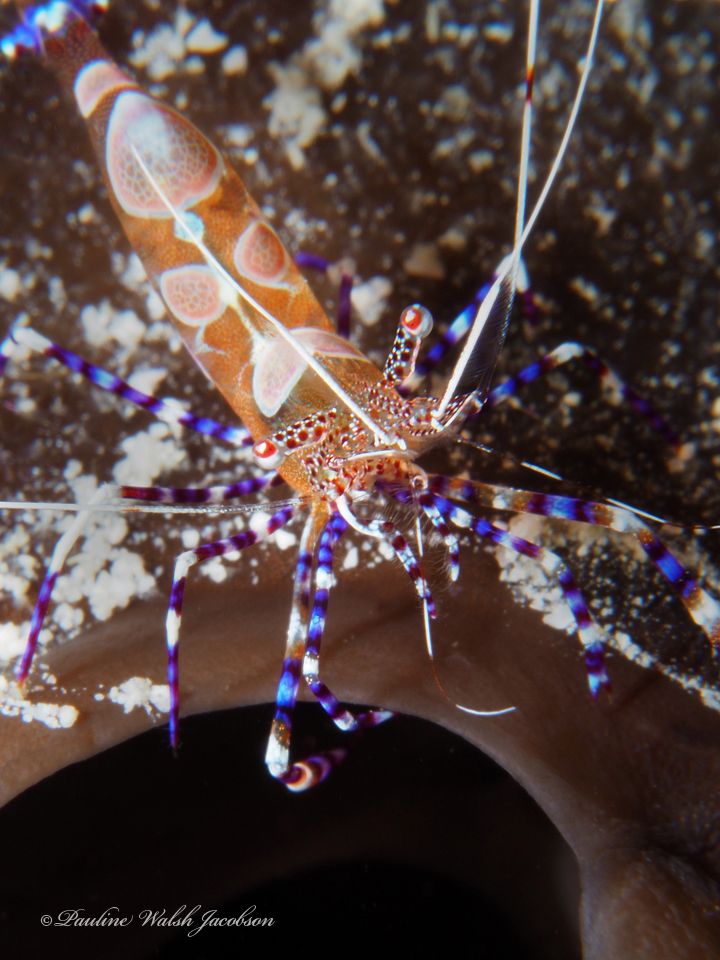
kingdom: Animalia
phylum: Arthropoda
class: Malacostraca
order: Decapoda
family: Palaemonidae
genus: Periclimenes
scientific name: Periclimenes yucatanicus
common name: Spotted cleaning shrimp
